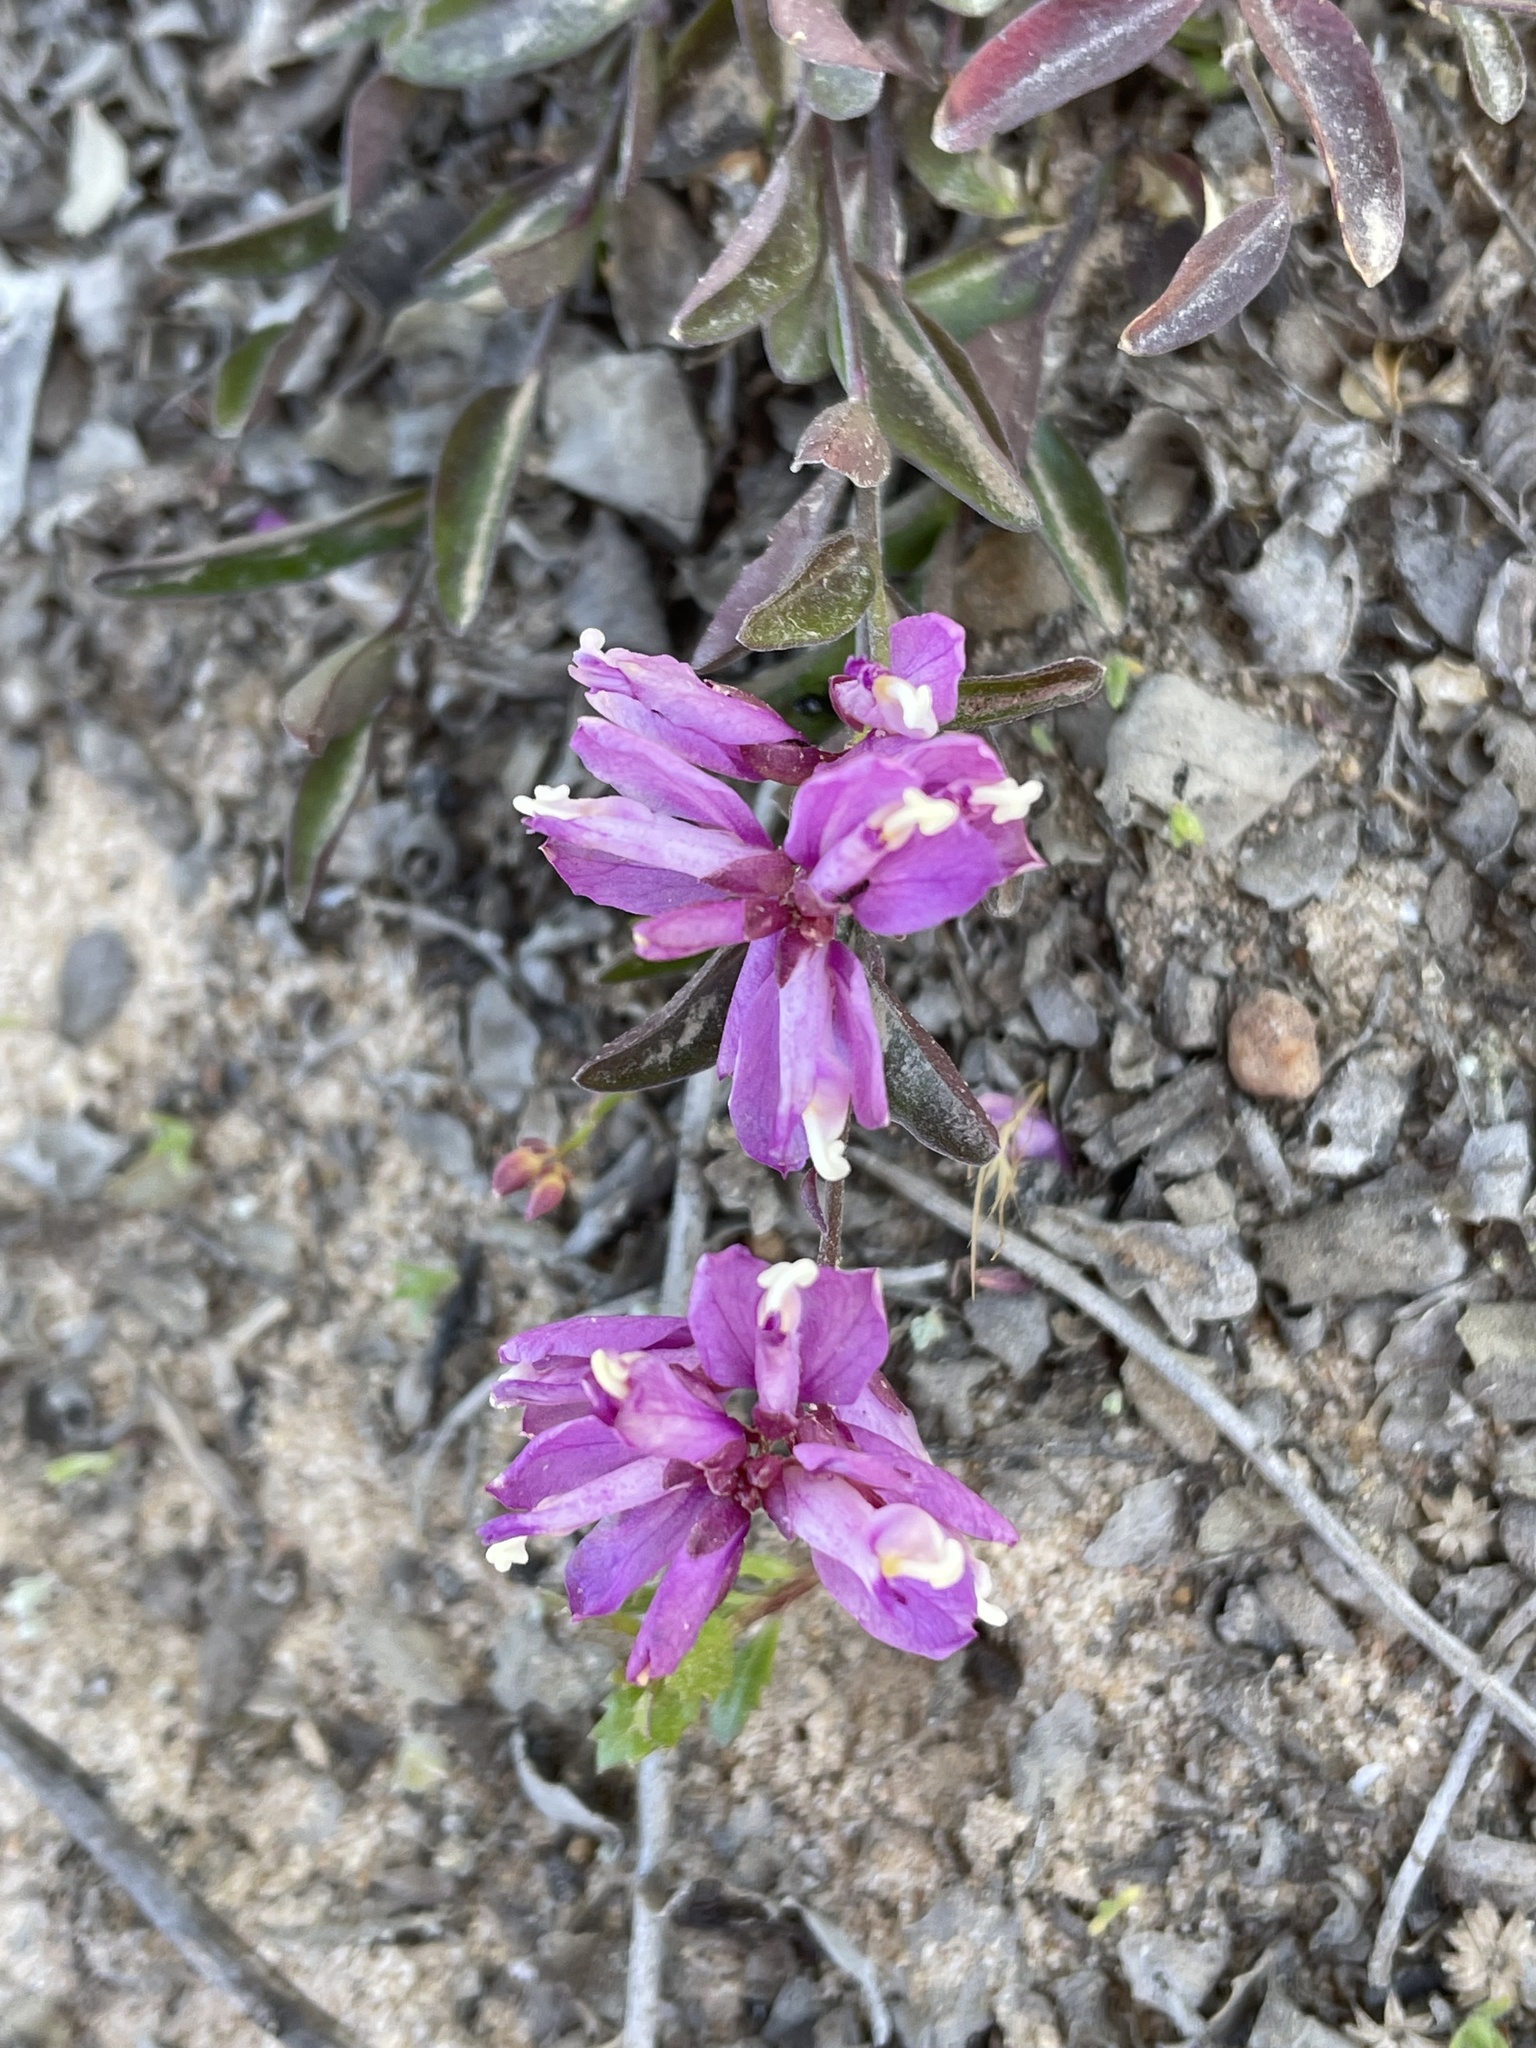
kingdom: Plantae
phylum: Tracheophyta
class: Magnoliopsida
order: Fabales
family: Polygalaceae
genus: Rhinotropis
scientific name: Rhinotropis californica
